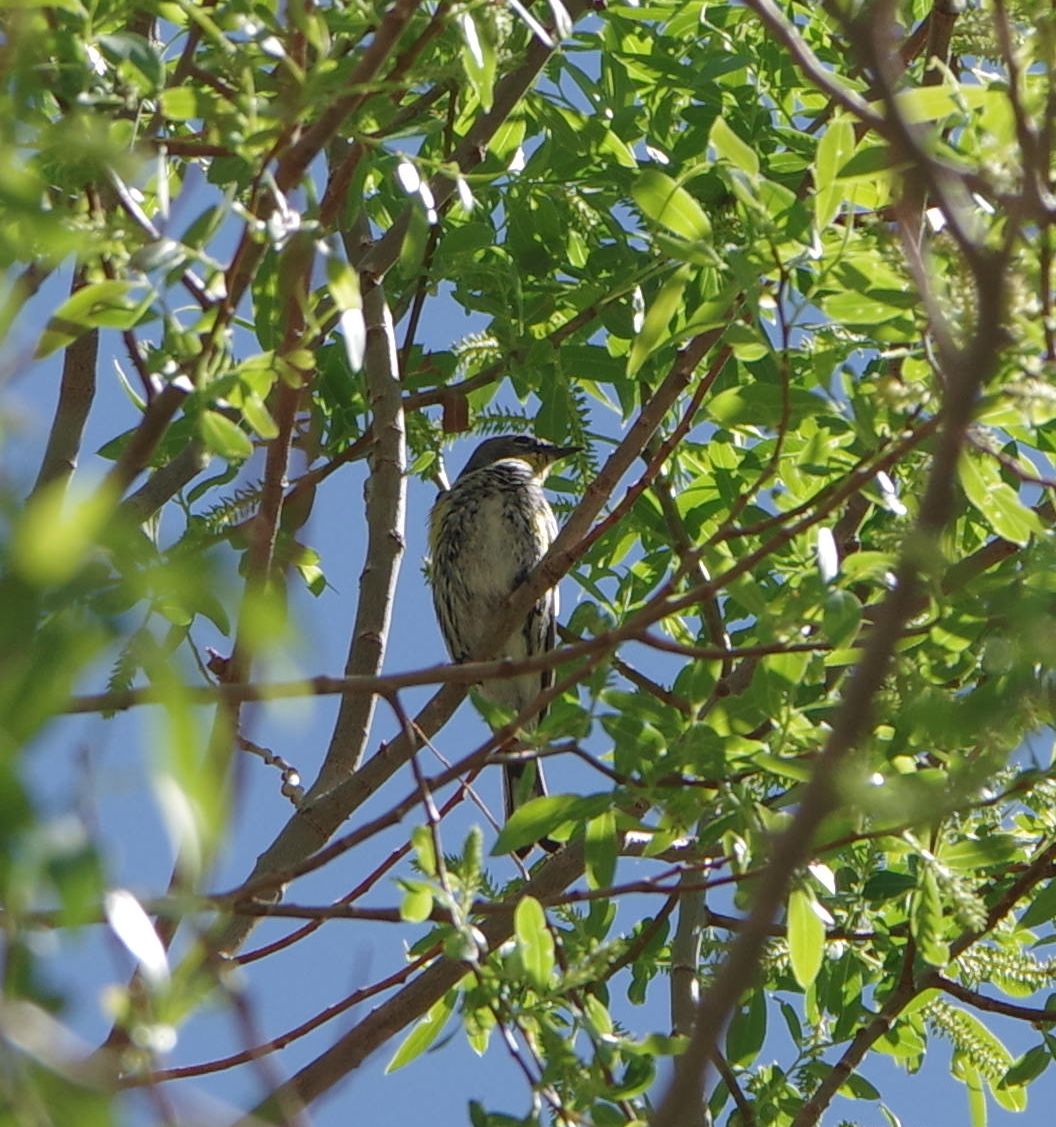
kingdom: Animalia
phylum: Chordata
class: Aves
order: Passeriformes
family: Parulidae
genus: Setophaga
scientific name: Setophaga coronata
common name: Myrtle warbler
